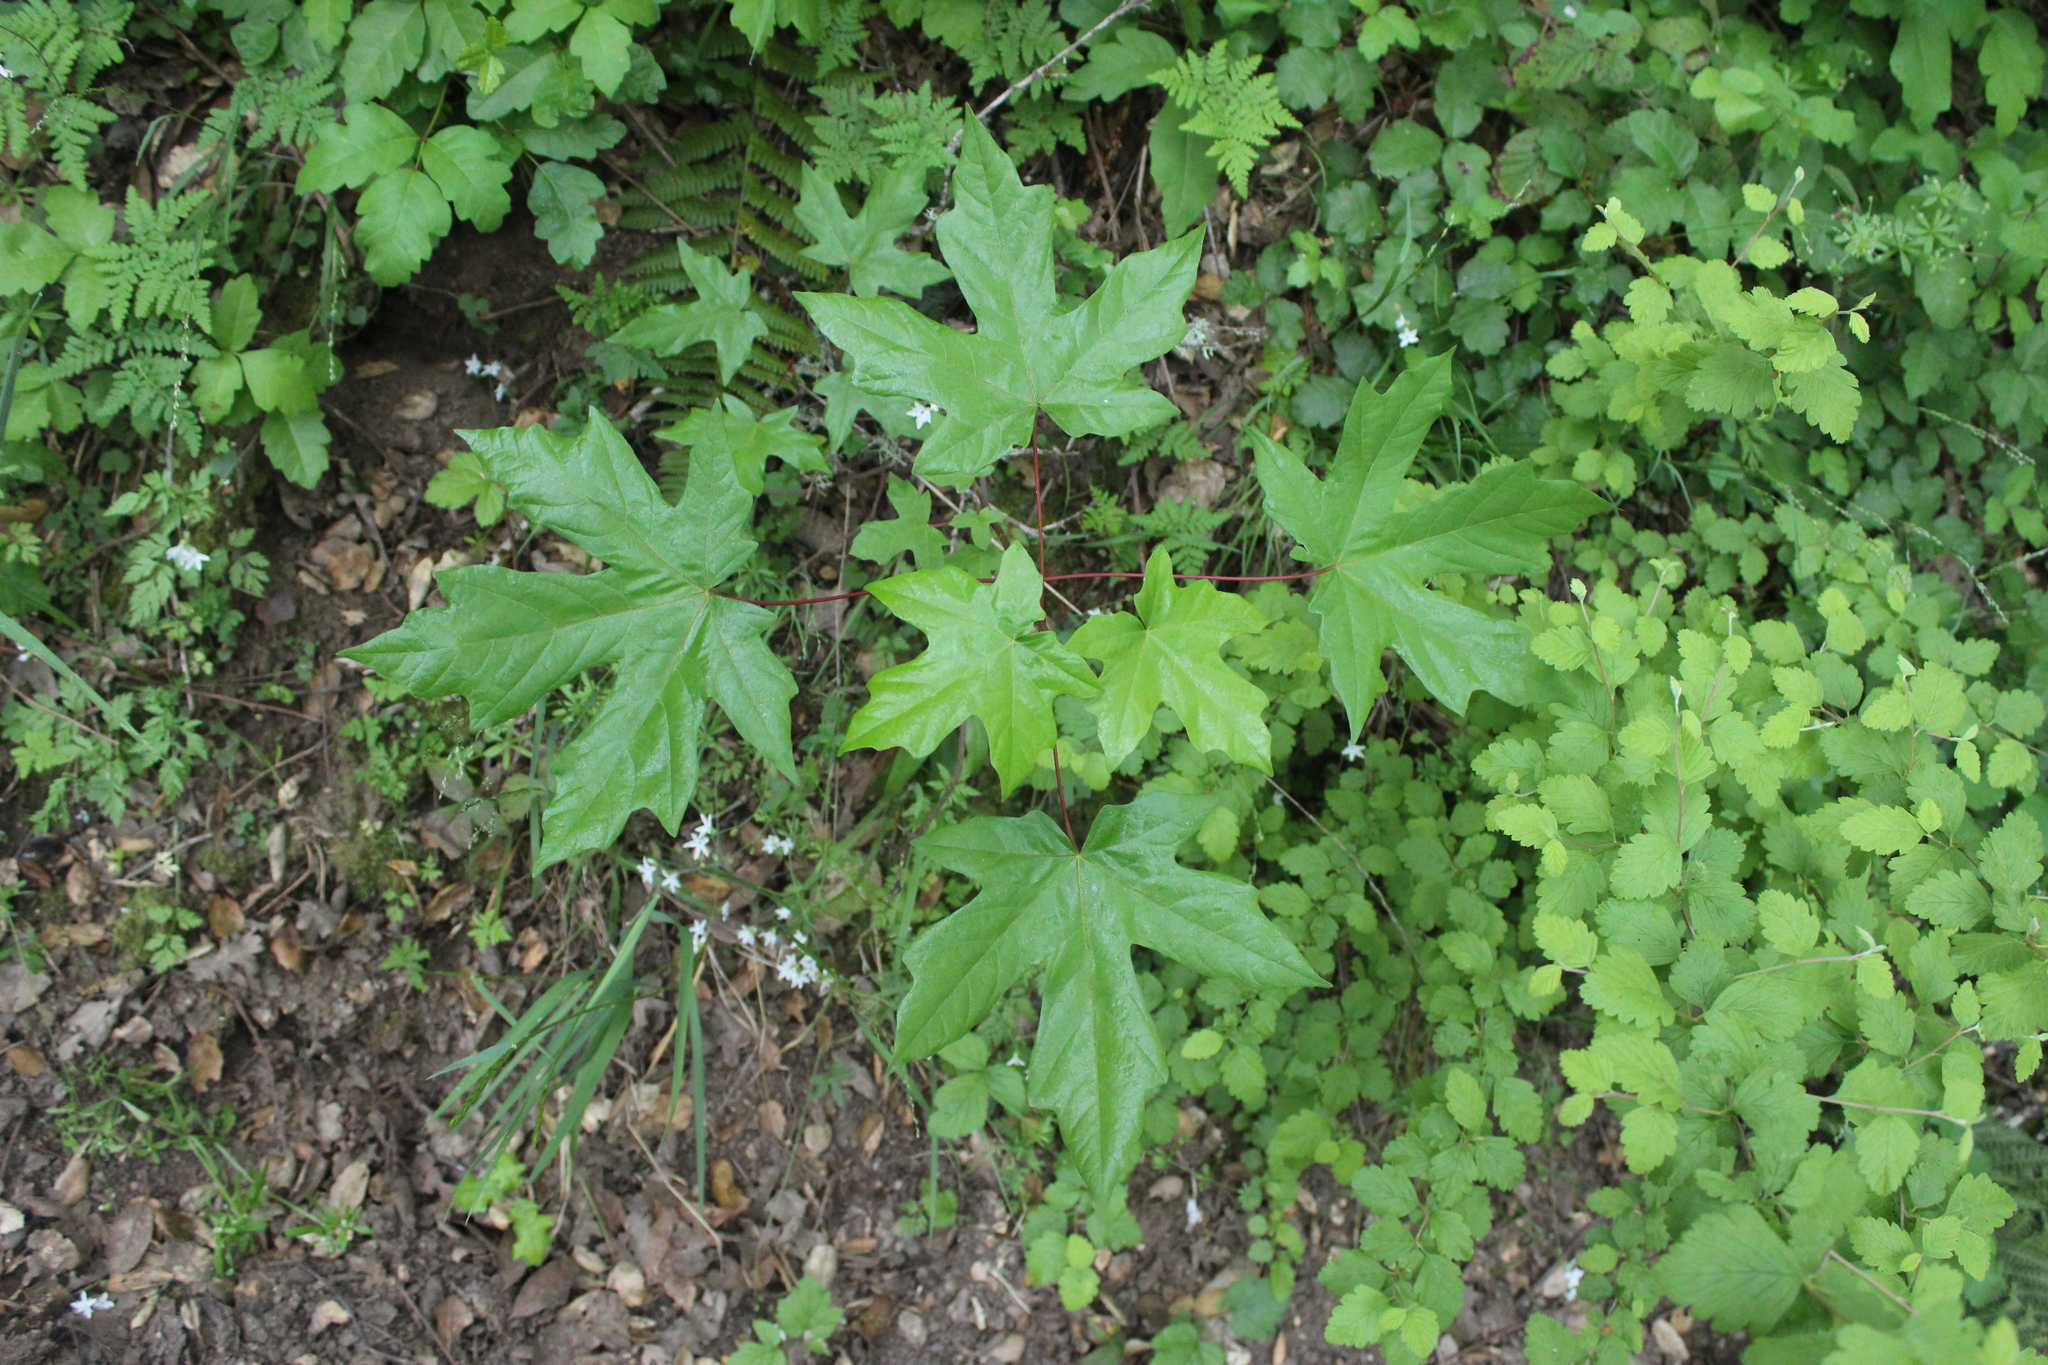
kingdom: Plantae
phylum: Tracheophyta
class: Magnoliopsida
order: Sapindales
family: Sapindaceae
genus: Acer
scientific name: Acer macrophyllum
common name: Oregon maple
